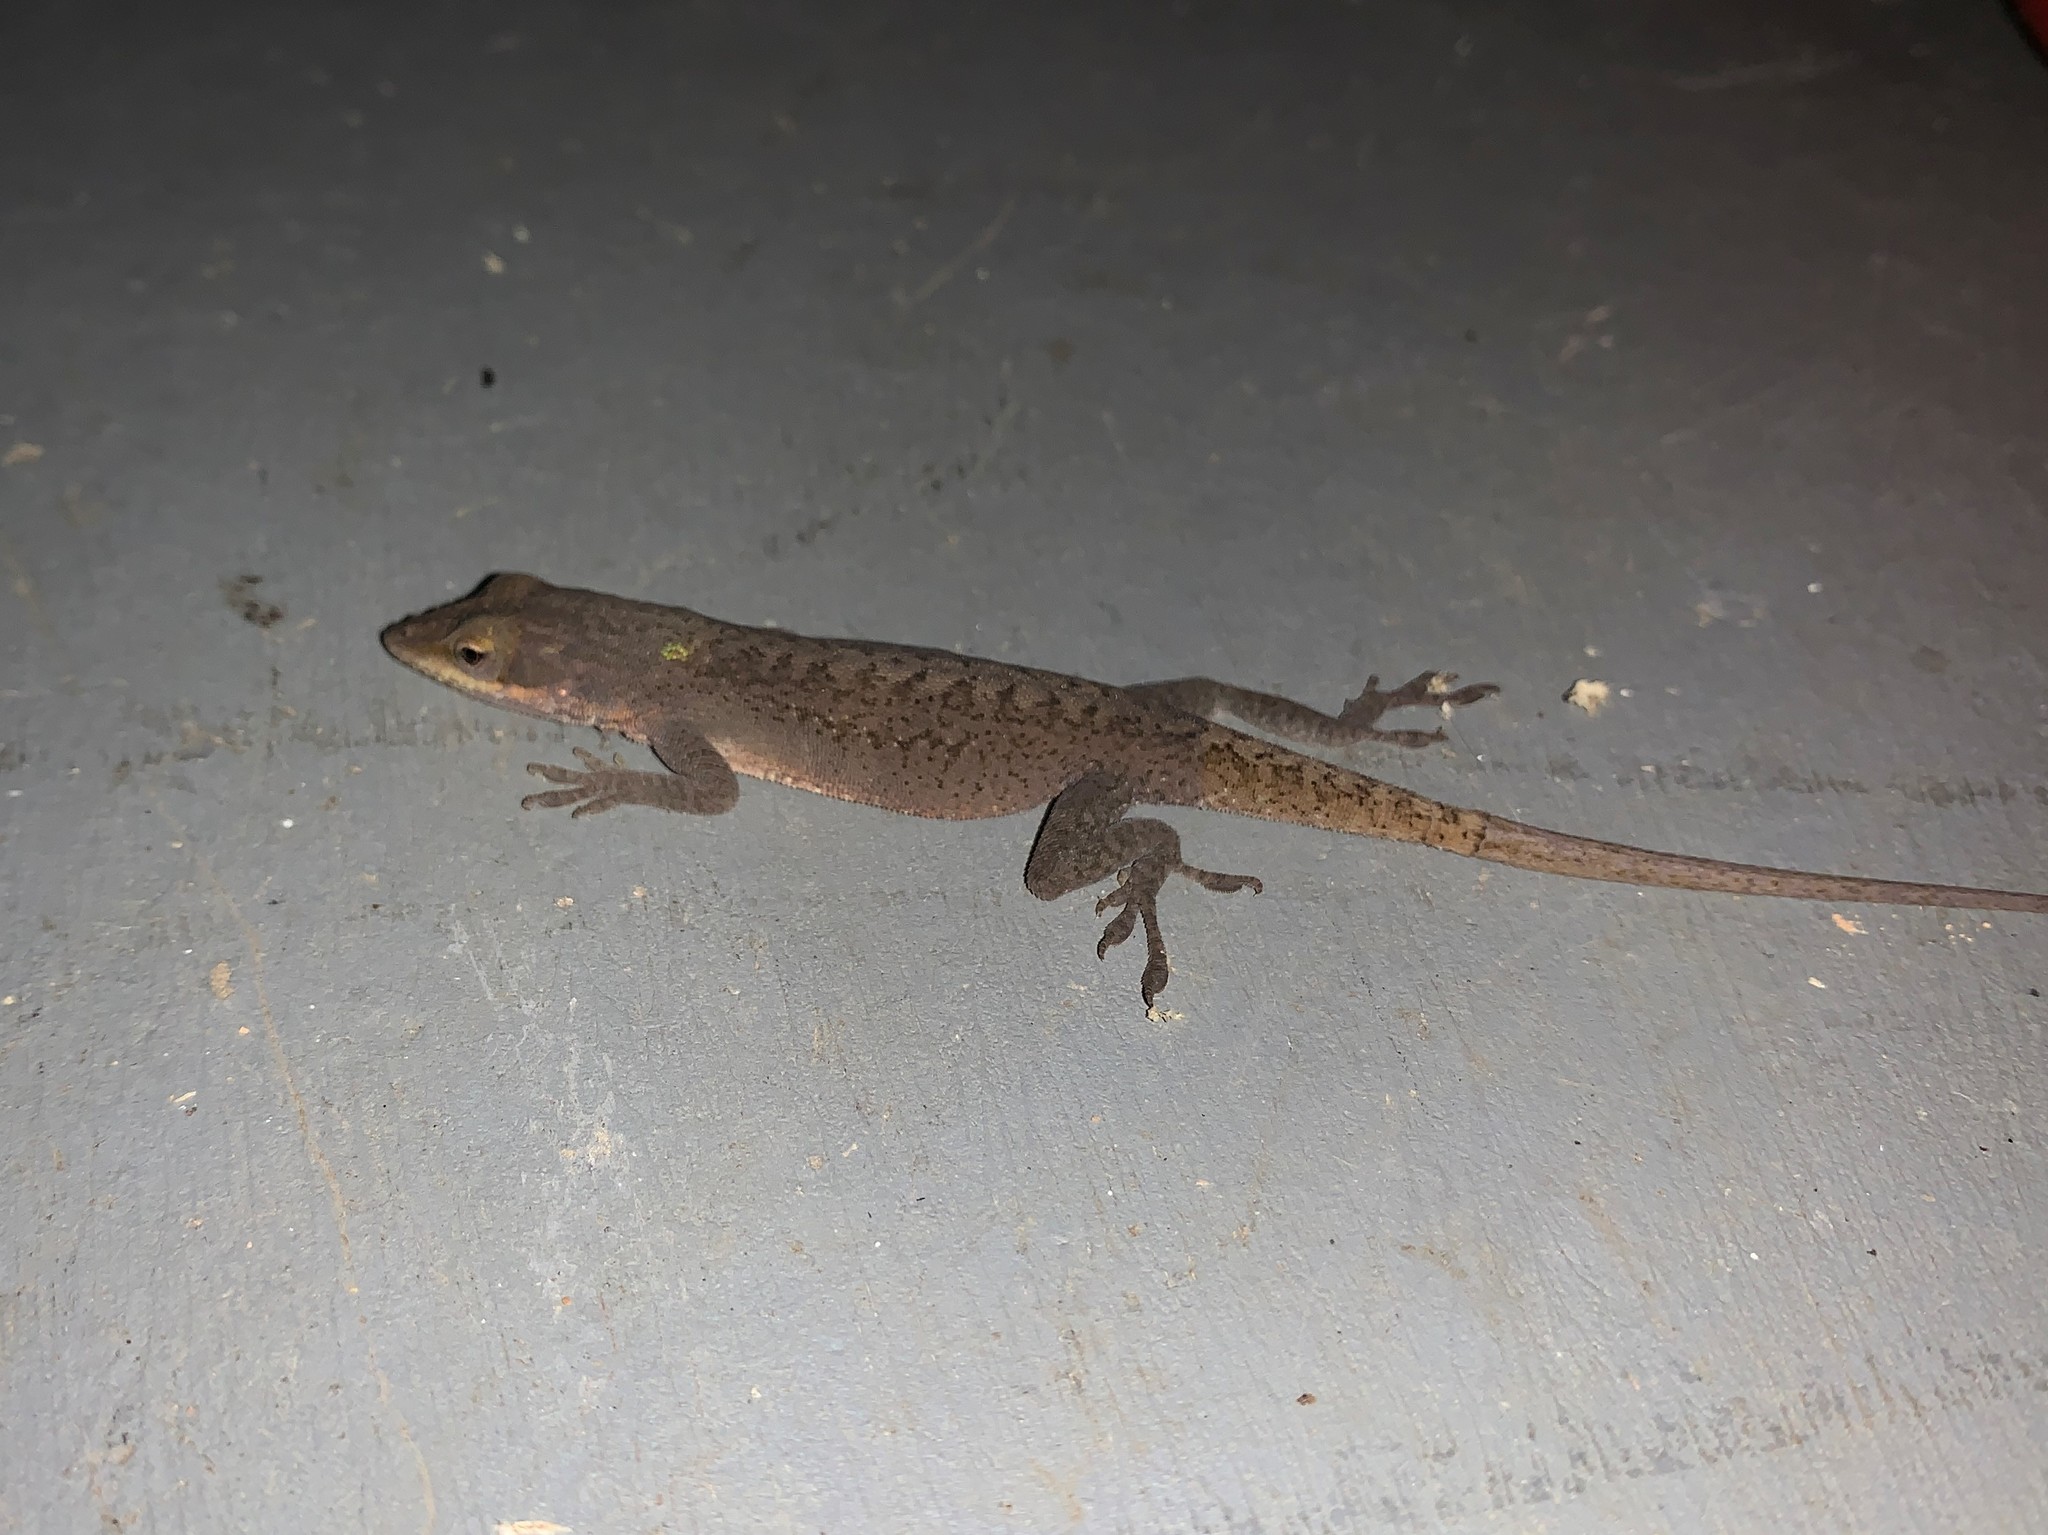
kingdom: Animalia
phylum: Chordata
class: Squamata
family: Dactyloidae
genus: Anolis
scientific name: Anolis carolinensis
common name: Green anole
